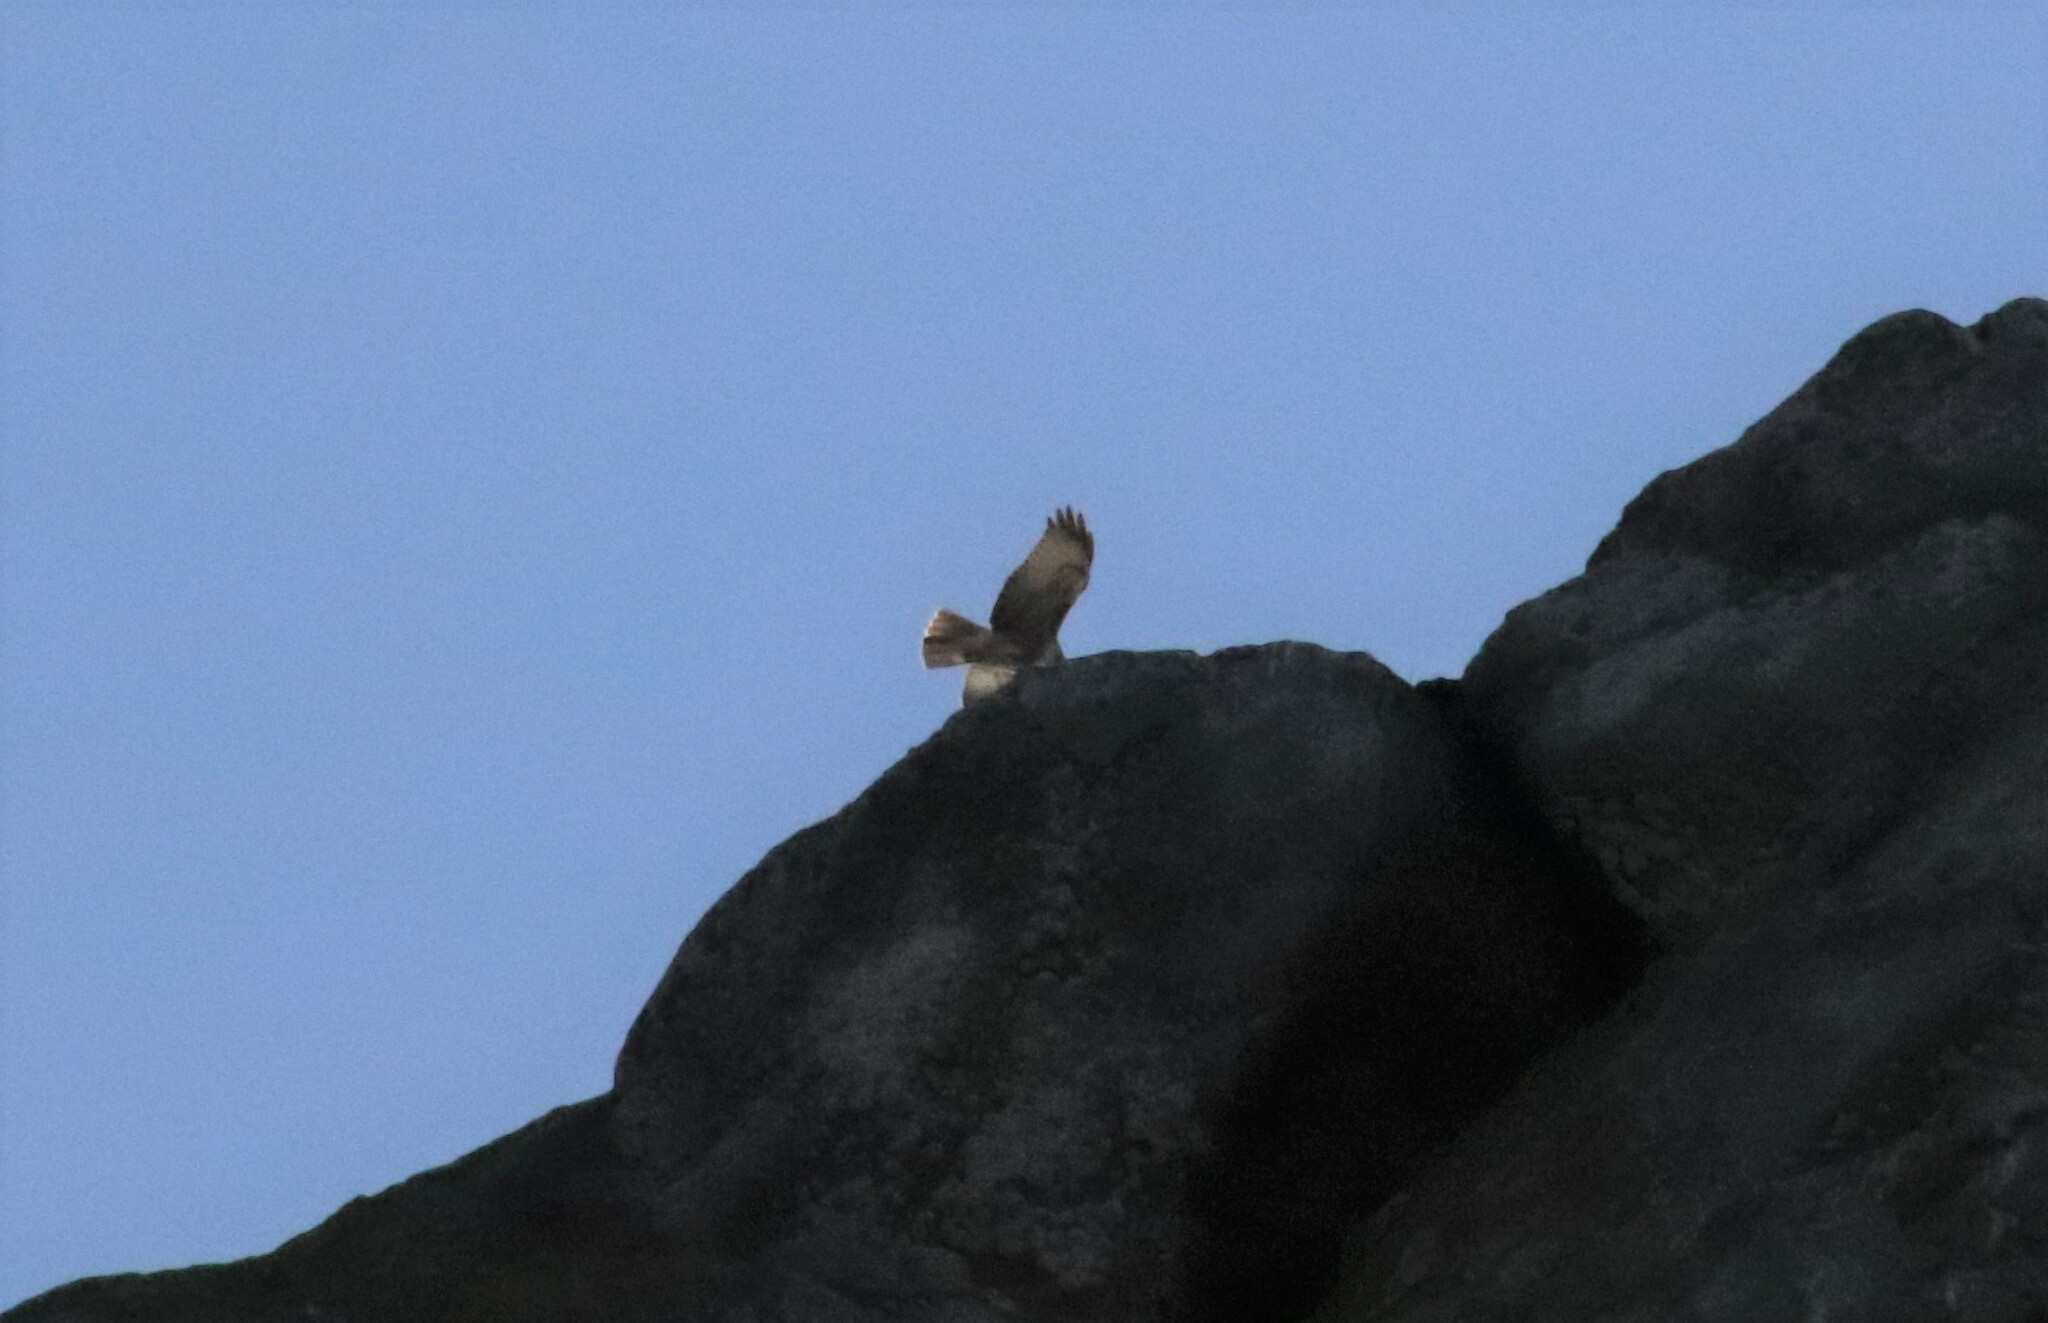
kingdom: Animalia
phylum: Chordata
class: Aves
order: Accipitriformes
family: Accipitridae
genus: Buteo
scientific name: Buteo jamaicensis
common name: Red-tailed hawk
